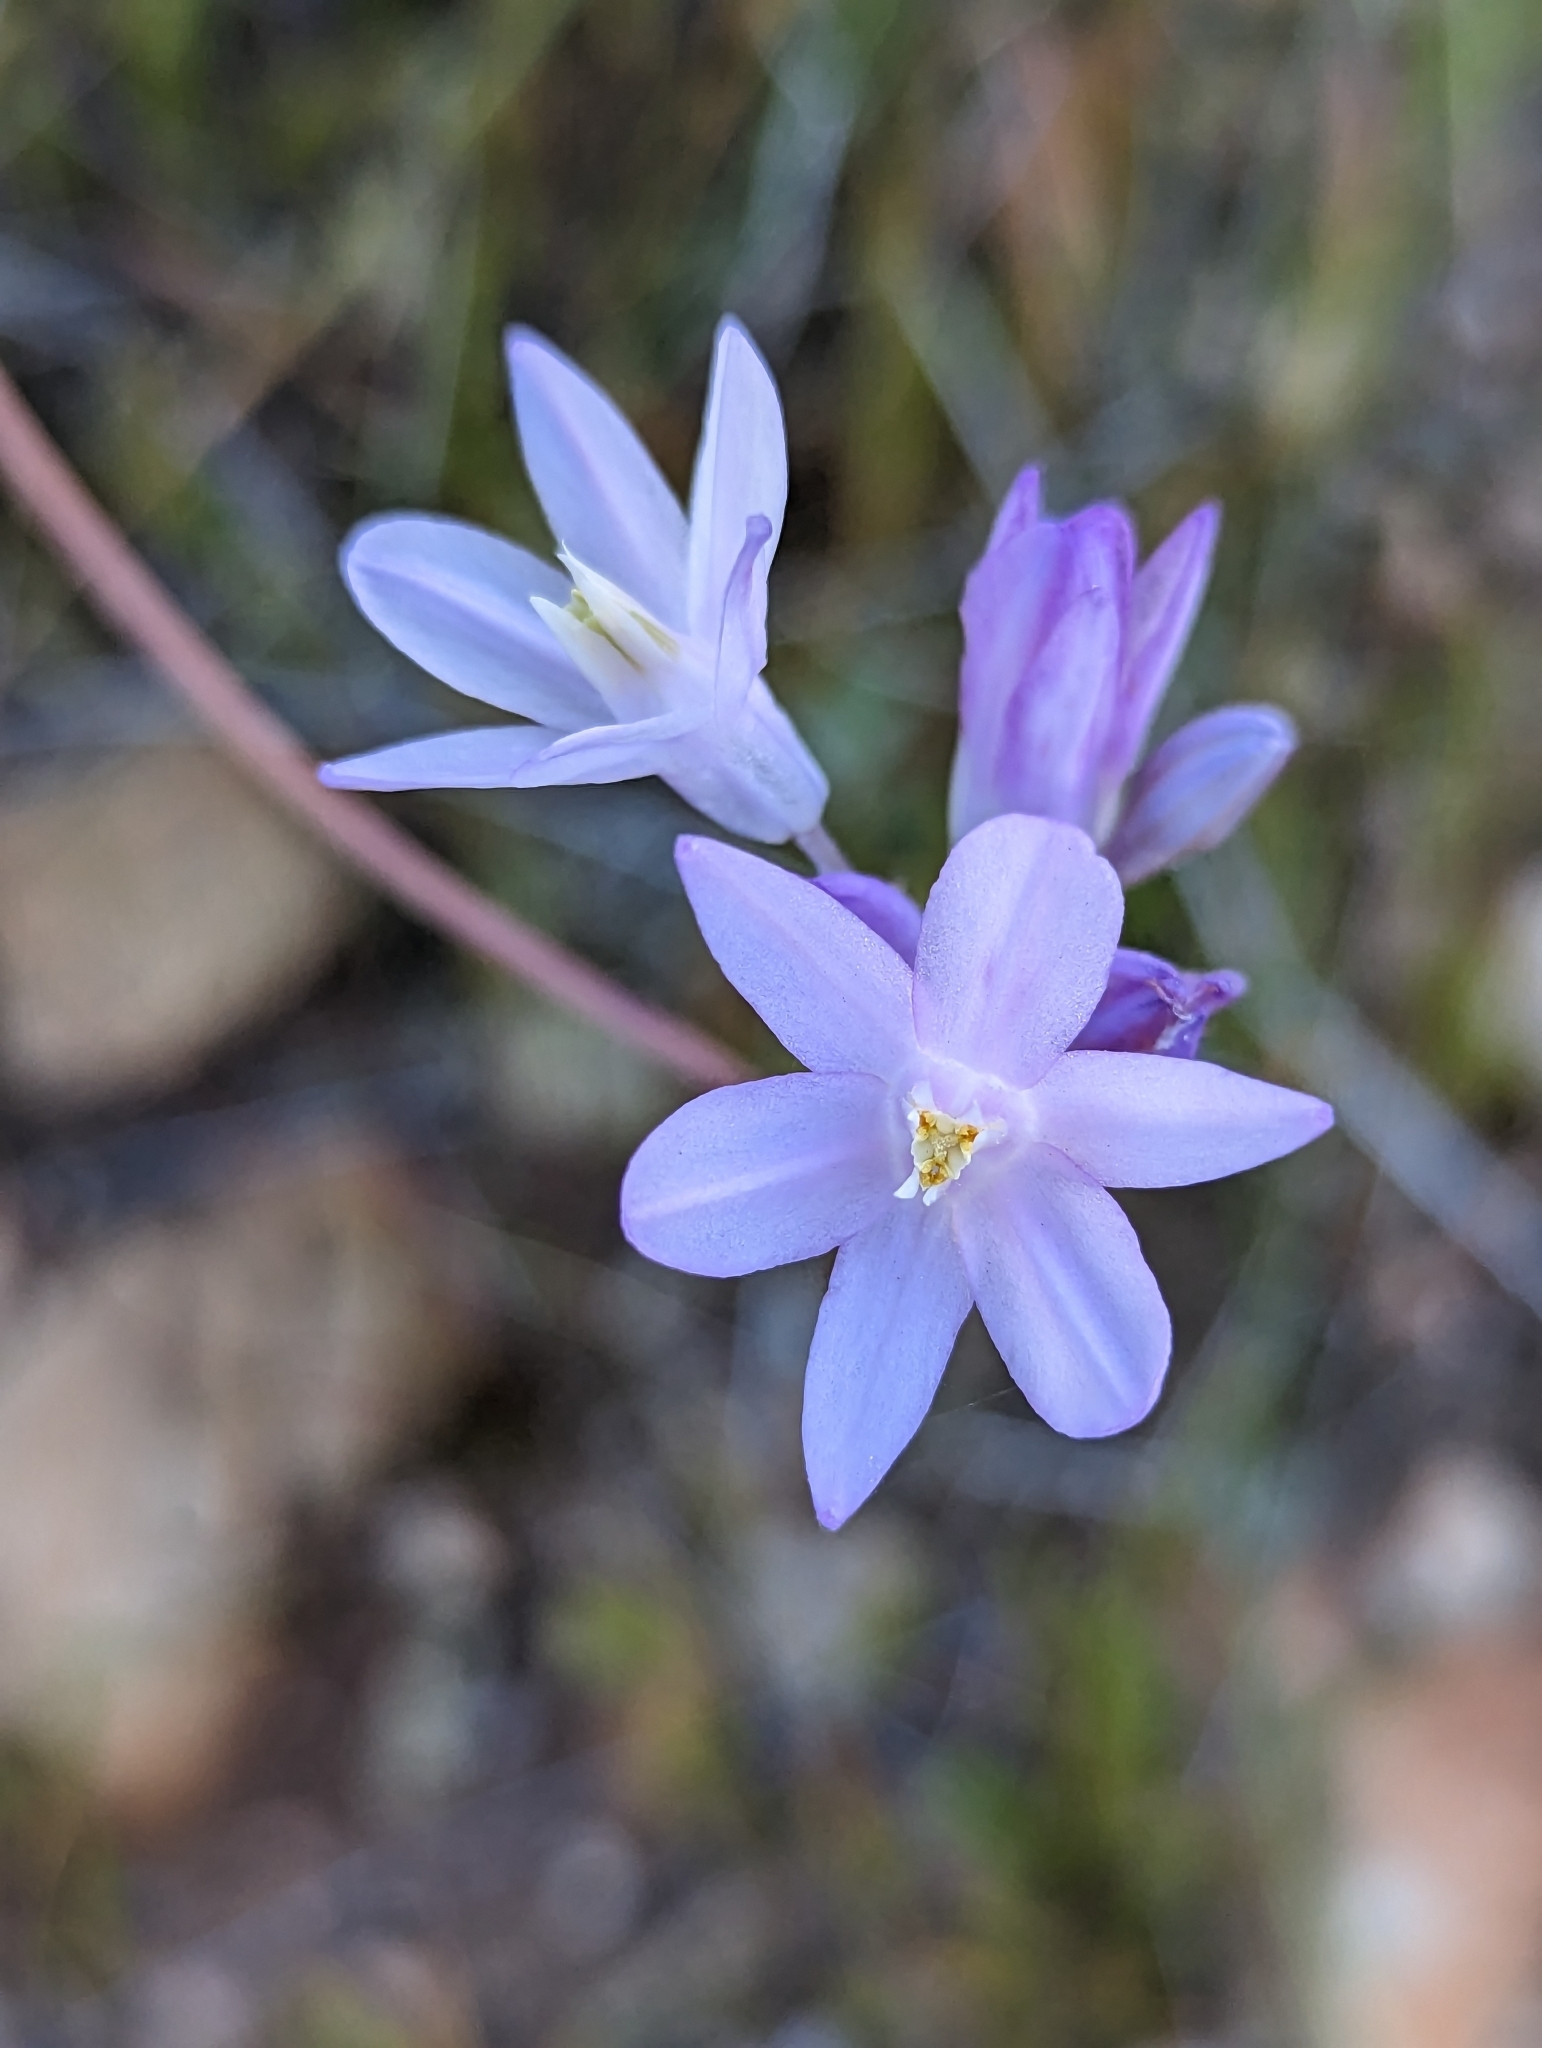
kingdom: Plantae
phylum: Tracheophyta
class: Liliopsida
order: Asparagales
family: Asparagaceae
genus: Dipterostemon
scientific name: Dipterostemon capitatus
